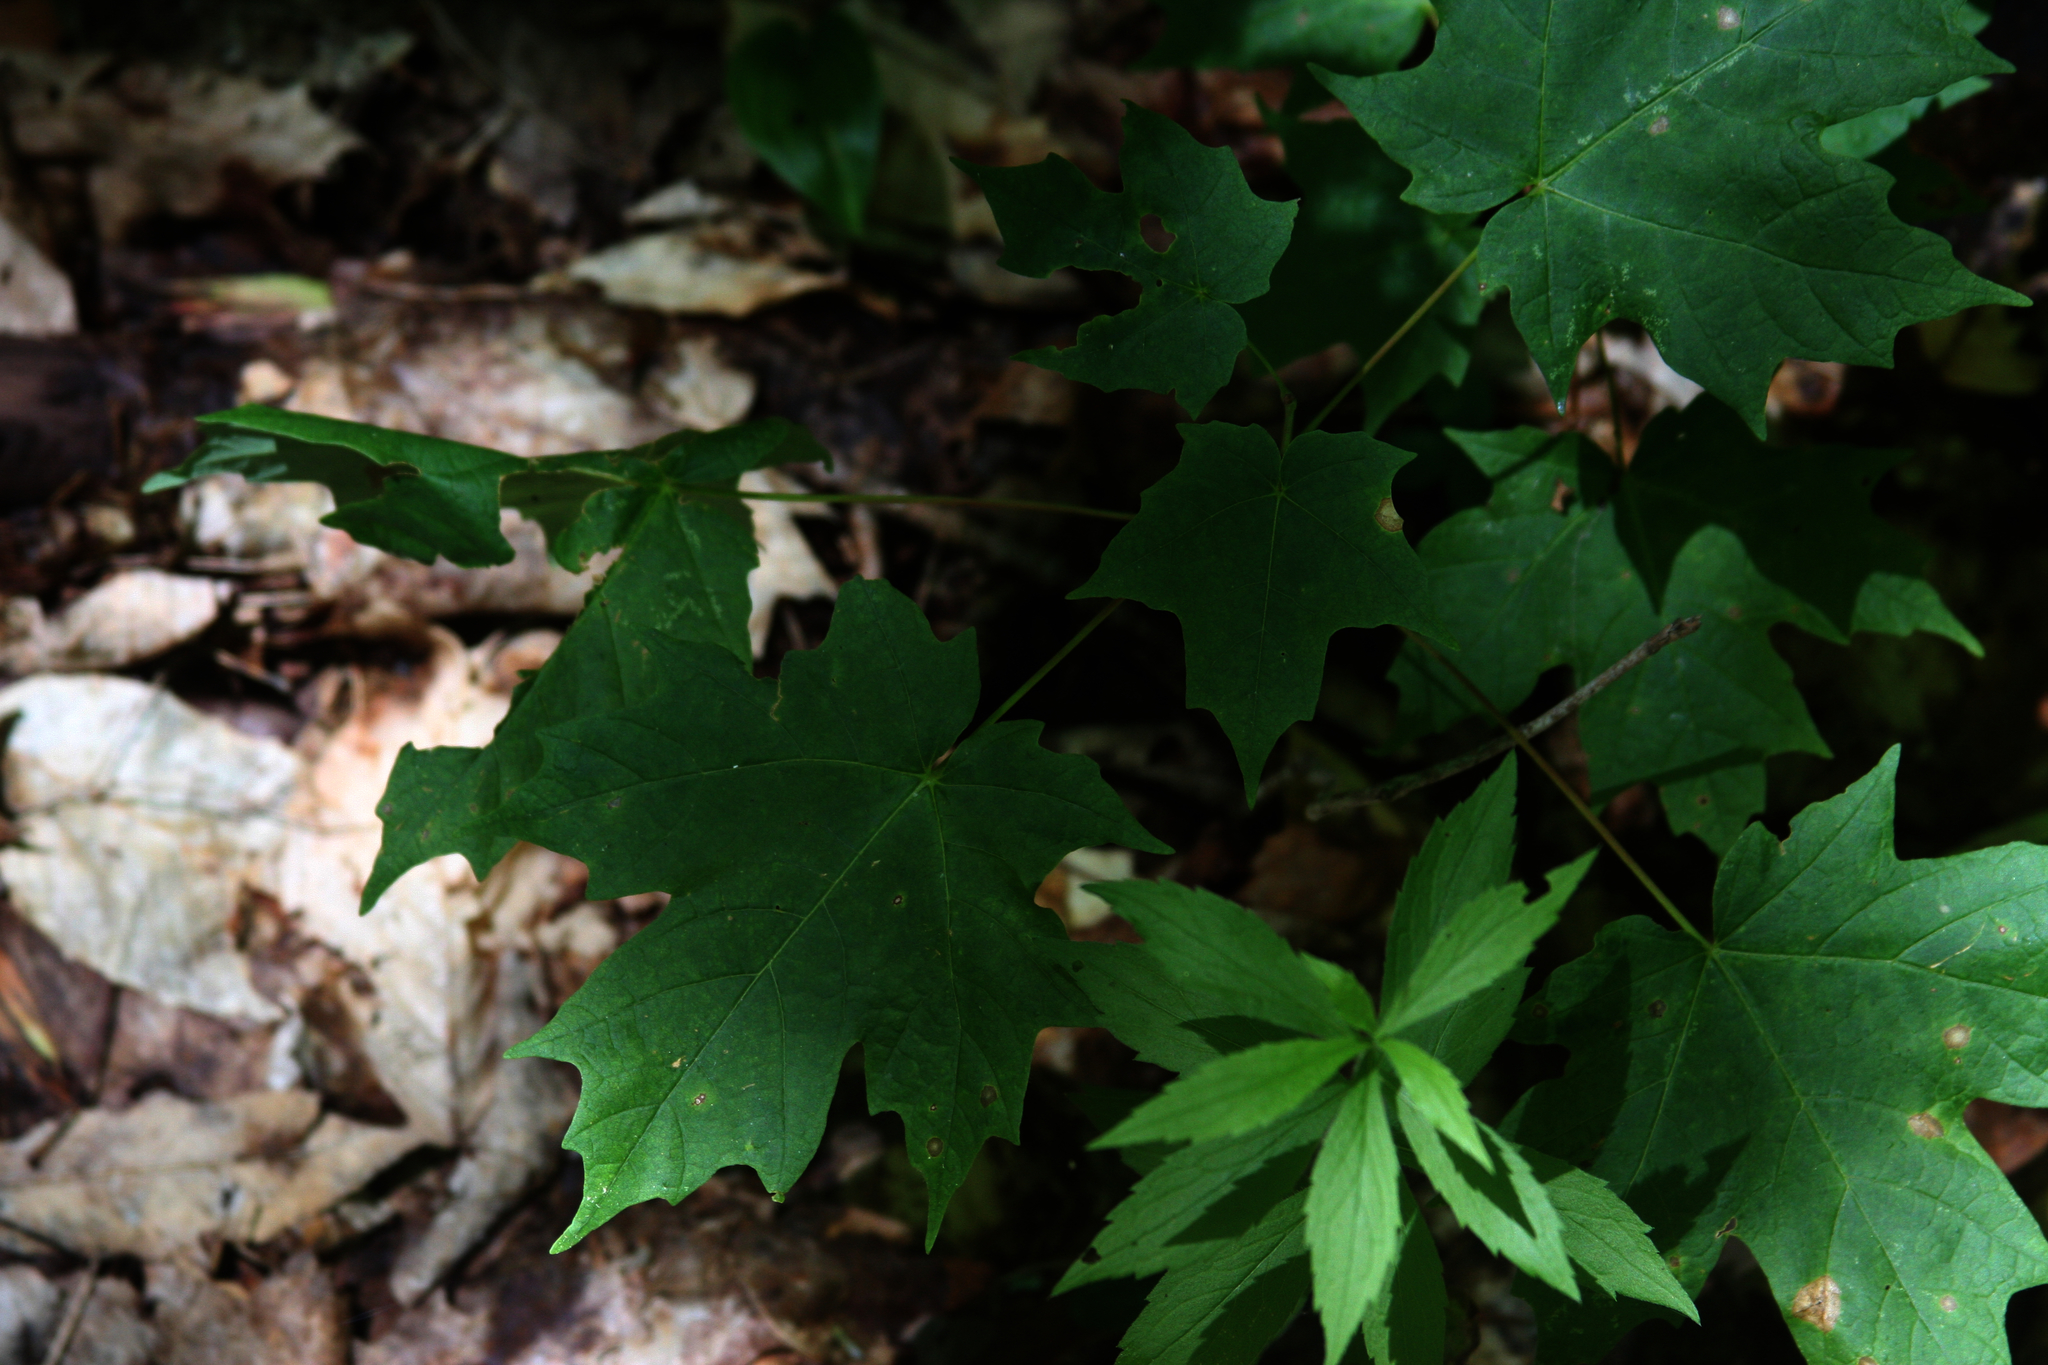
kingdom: Plantae
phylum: Tracheophyta
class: Magnoliopsida
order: Sapindales
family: Sapindaceae
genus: Acer
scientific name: Acer saccharum
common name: Sugar maple
